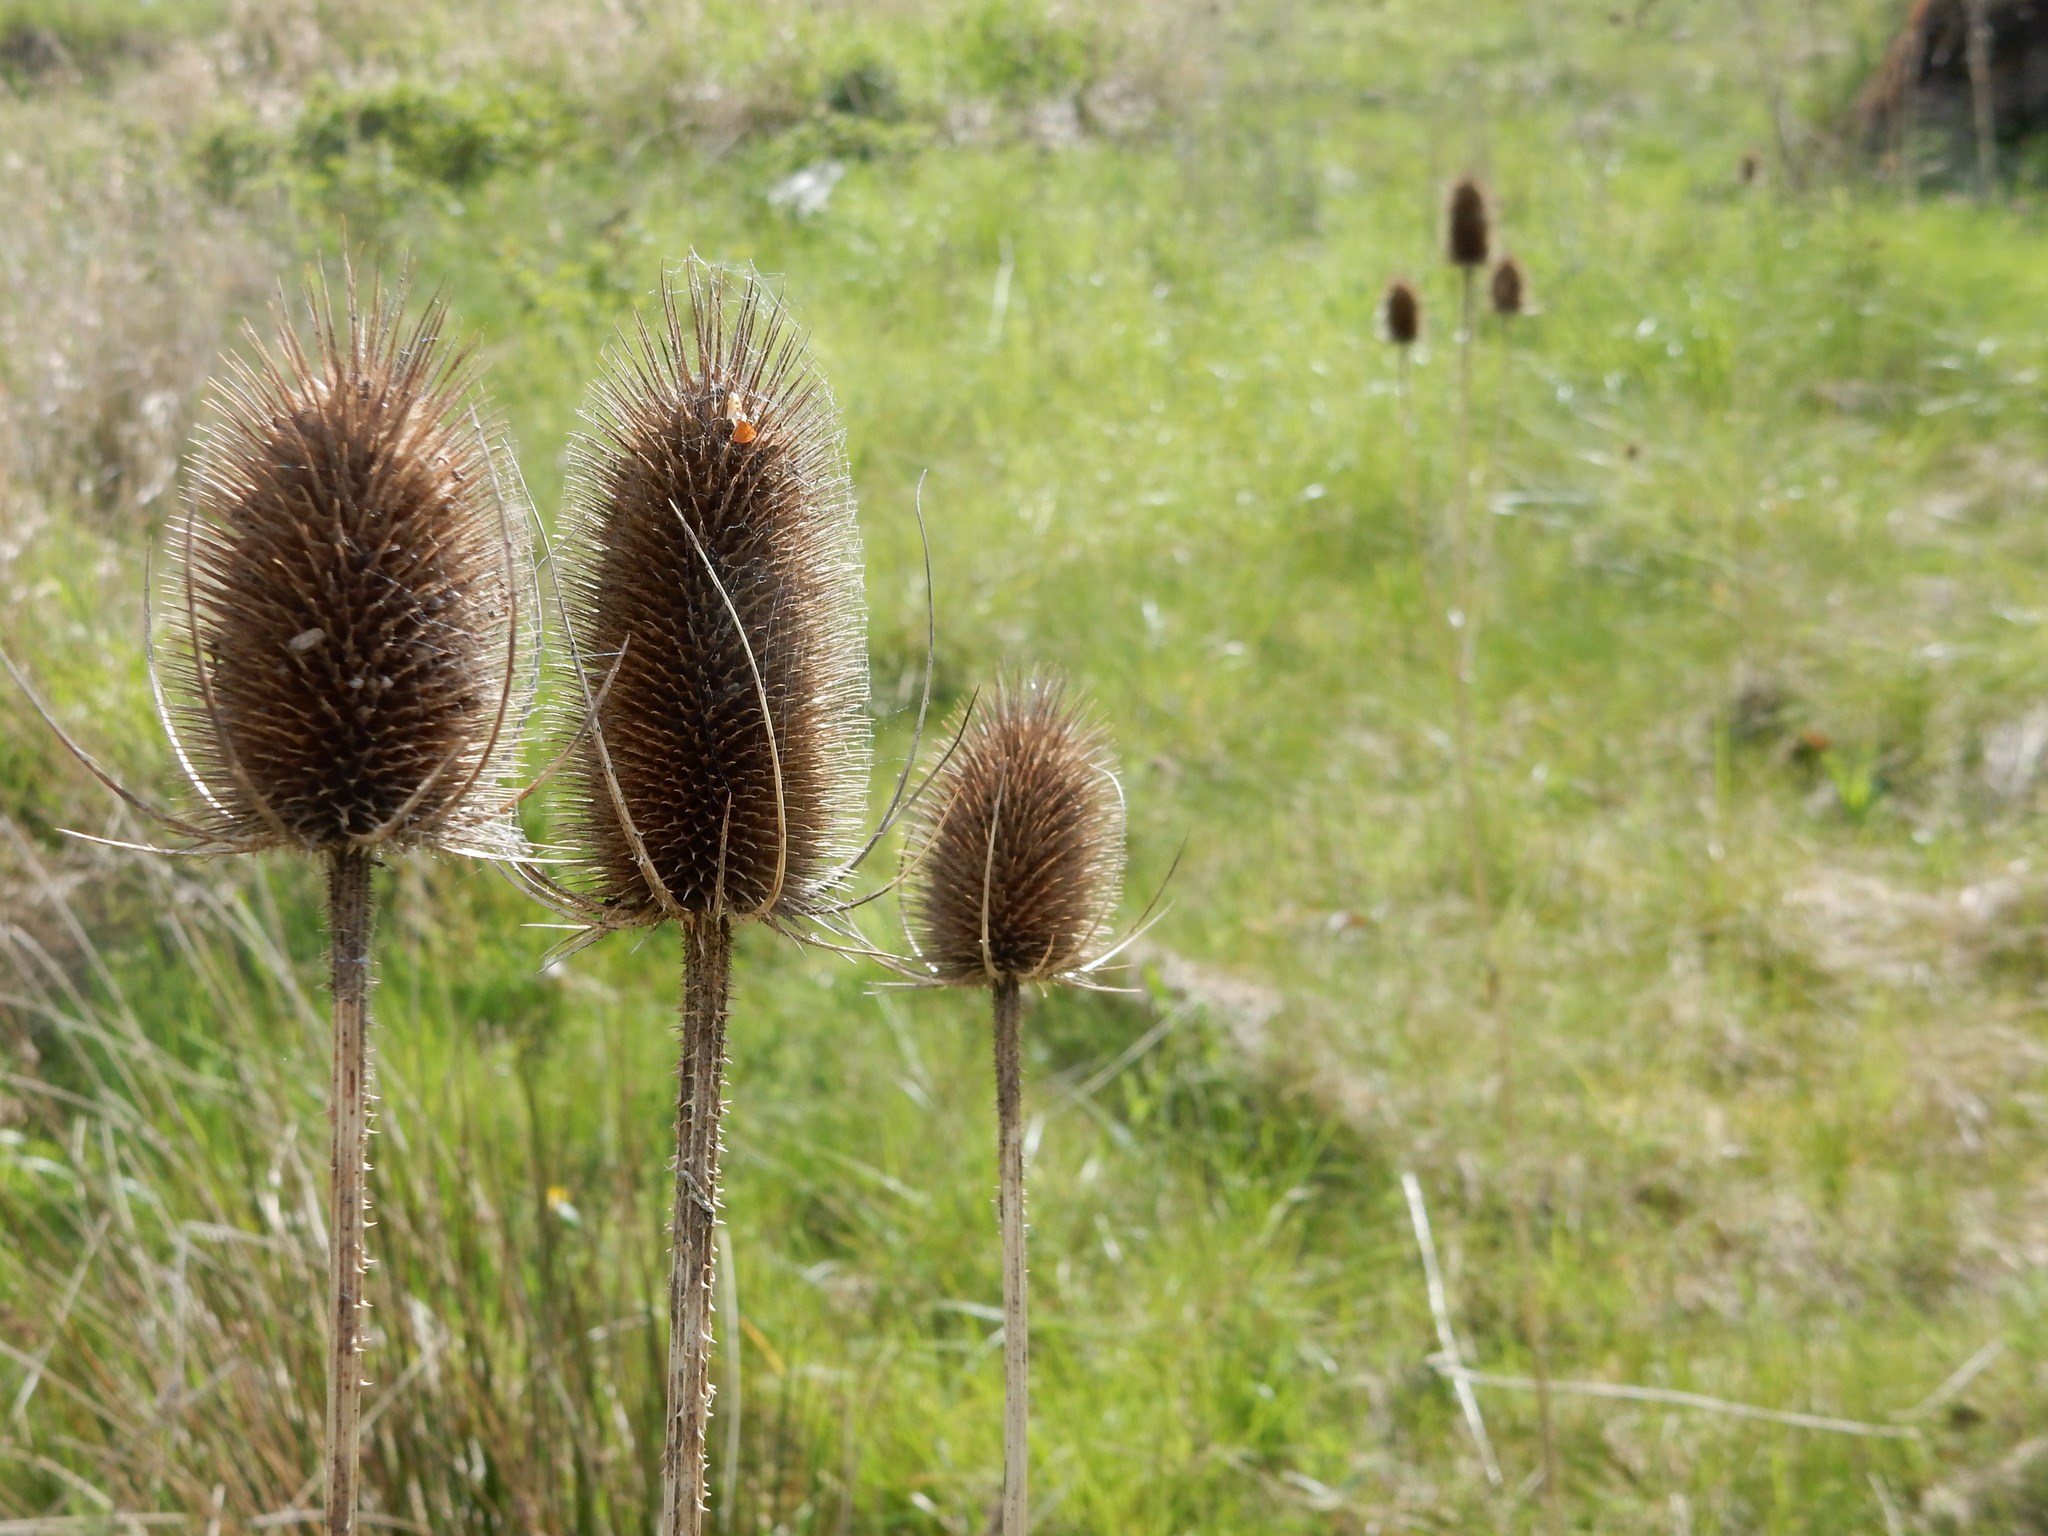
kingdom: Plantae
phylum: Tracheophyta
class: Magnoliopsida
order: Dipsacales
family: Caprifoliaceae
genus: Dipsacus
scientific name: Dipsacus fullonum
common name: Teasel
